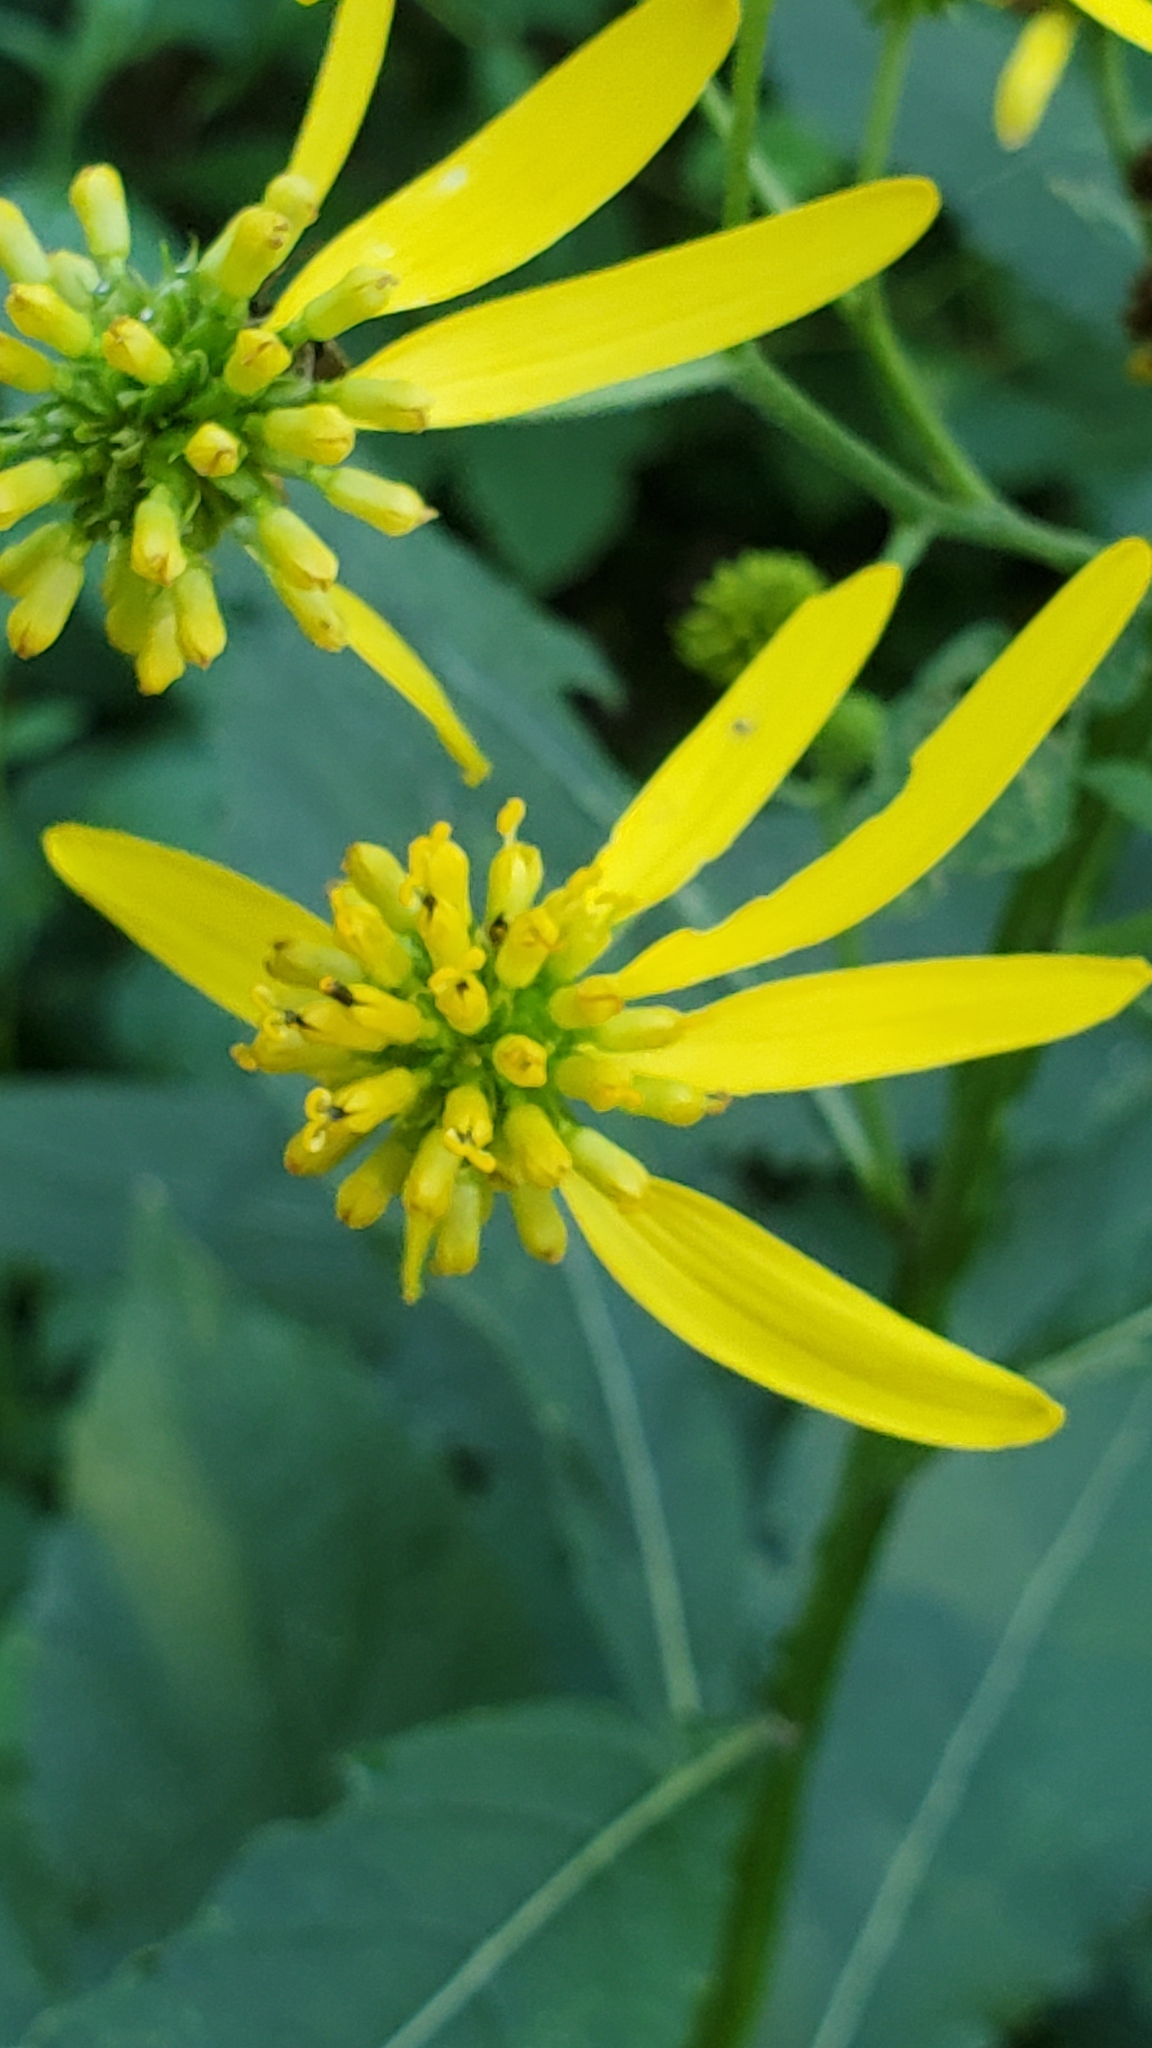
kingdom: Plantae
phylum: Tracheophyta
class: Magnoliopsida
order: Asterales
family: Asteraceae
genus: Verbesina
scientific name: Verbesina alternifolia
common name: Wingstem
